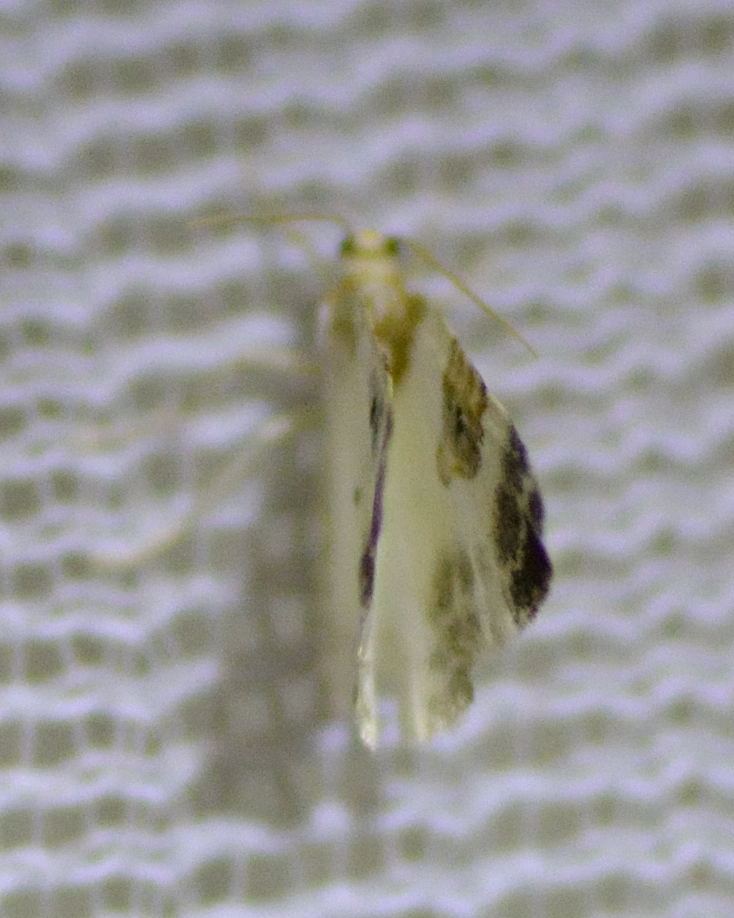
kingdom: Animalia
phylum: Arthropoda
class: Insecta
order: Lepidoptera
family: Geometridae
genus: Plemyria
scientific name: Plemyria rubiginata
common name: Blue-bordered carpet
